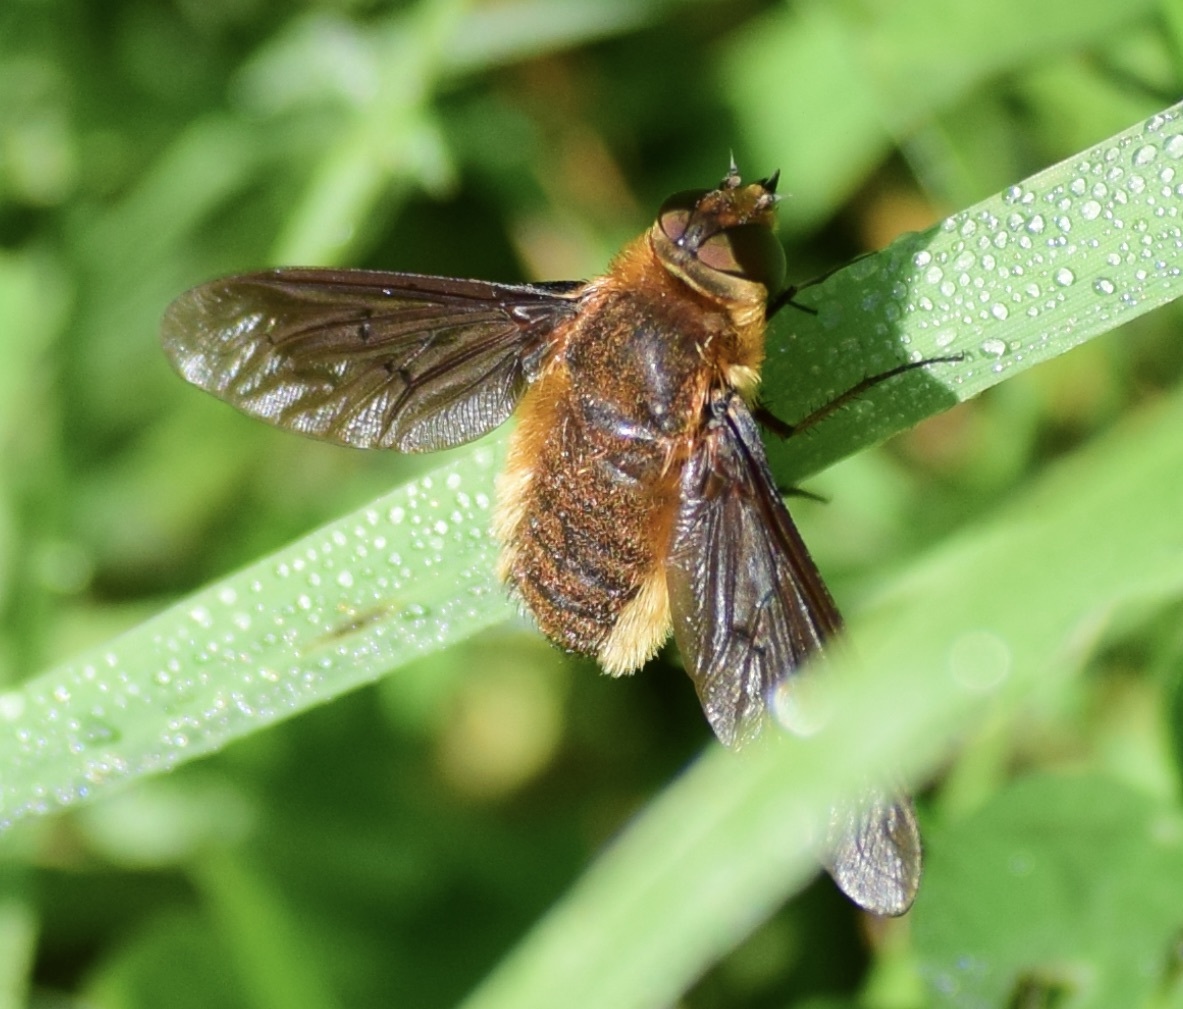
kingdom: Animalia
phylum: Arthropoda
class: Insecta
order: Diptera
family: Bombyliidae
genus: Poecilanthrax
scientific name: Poecilanthrax tegminipennis
